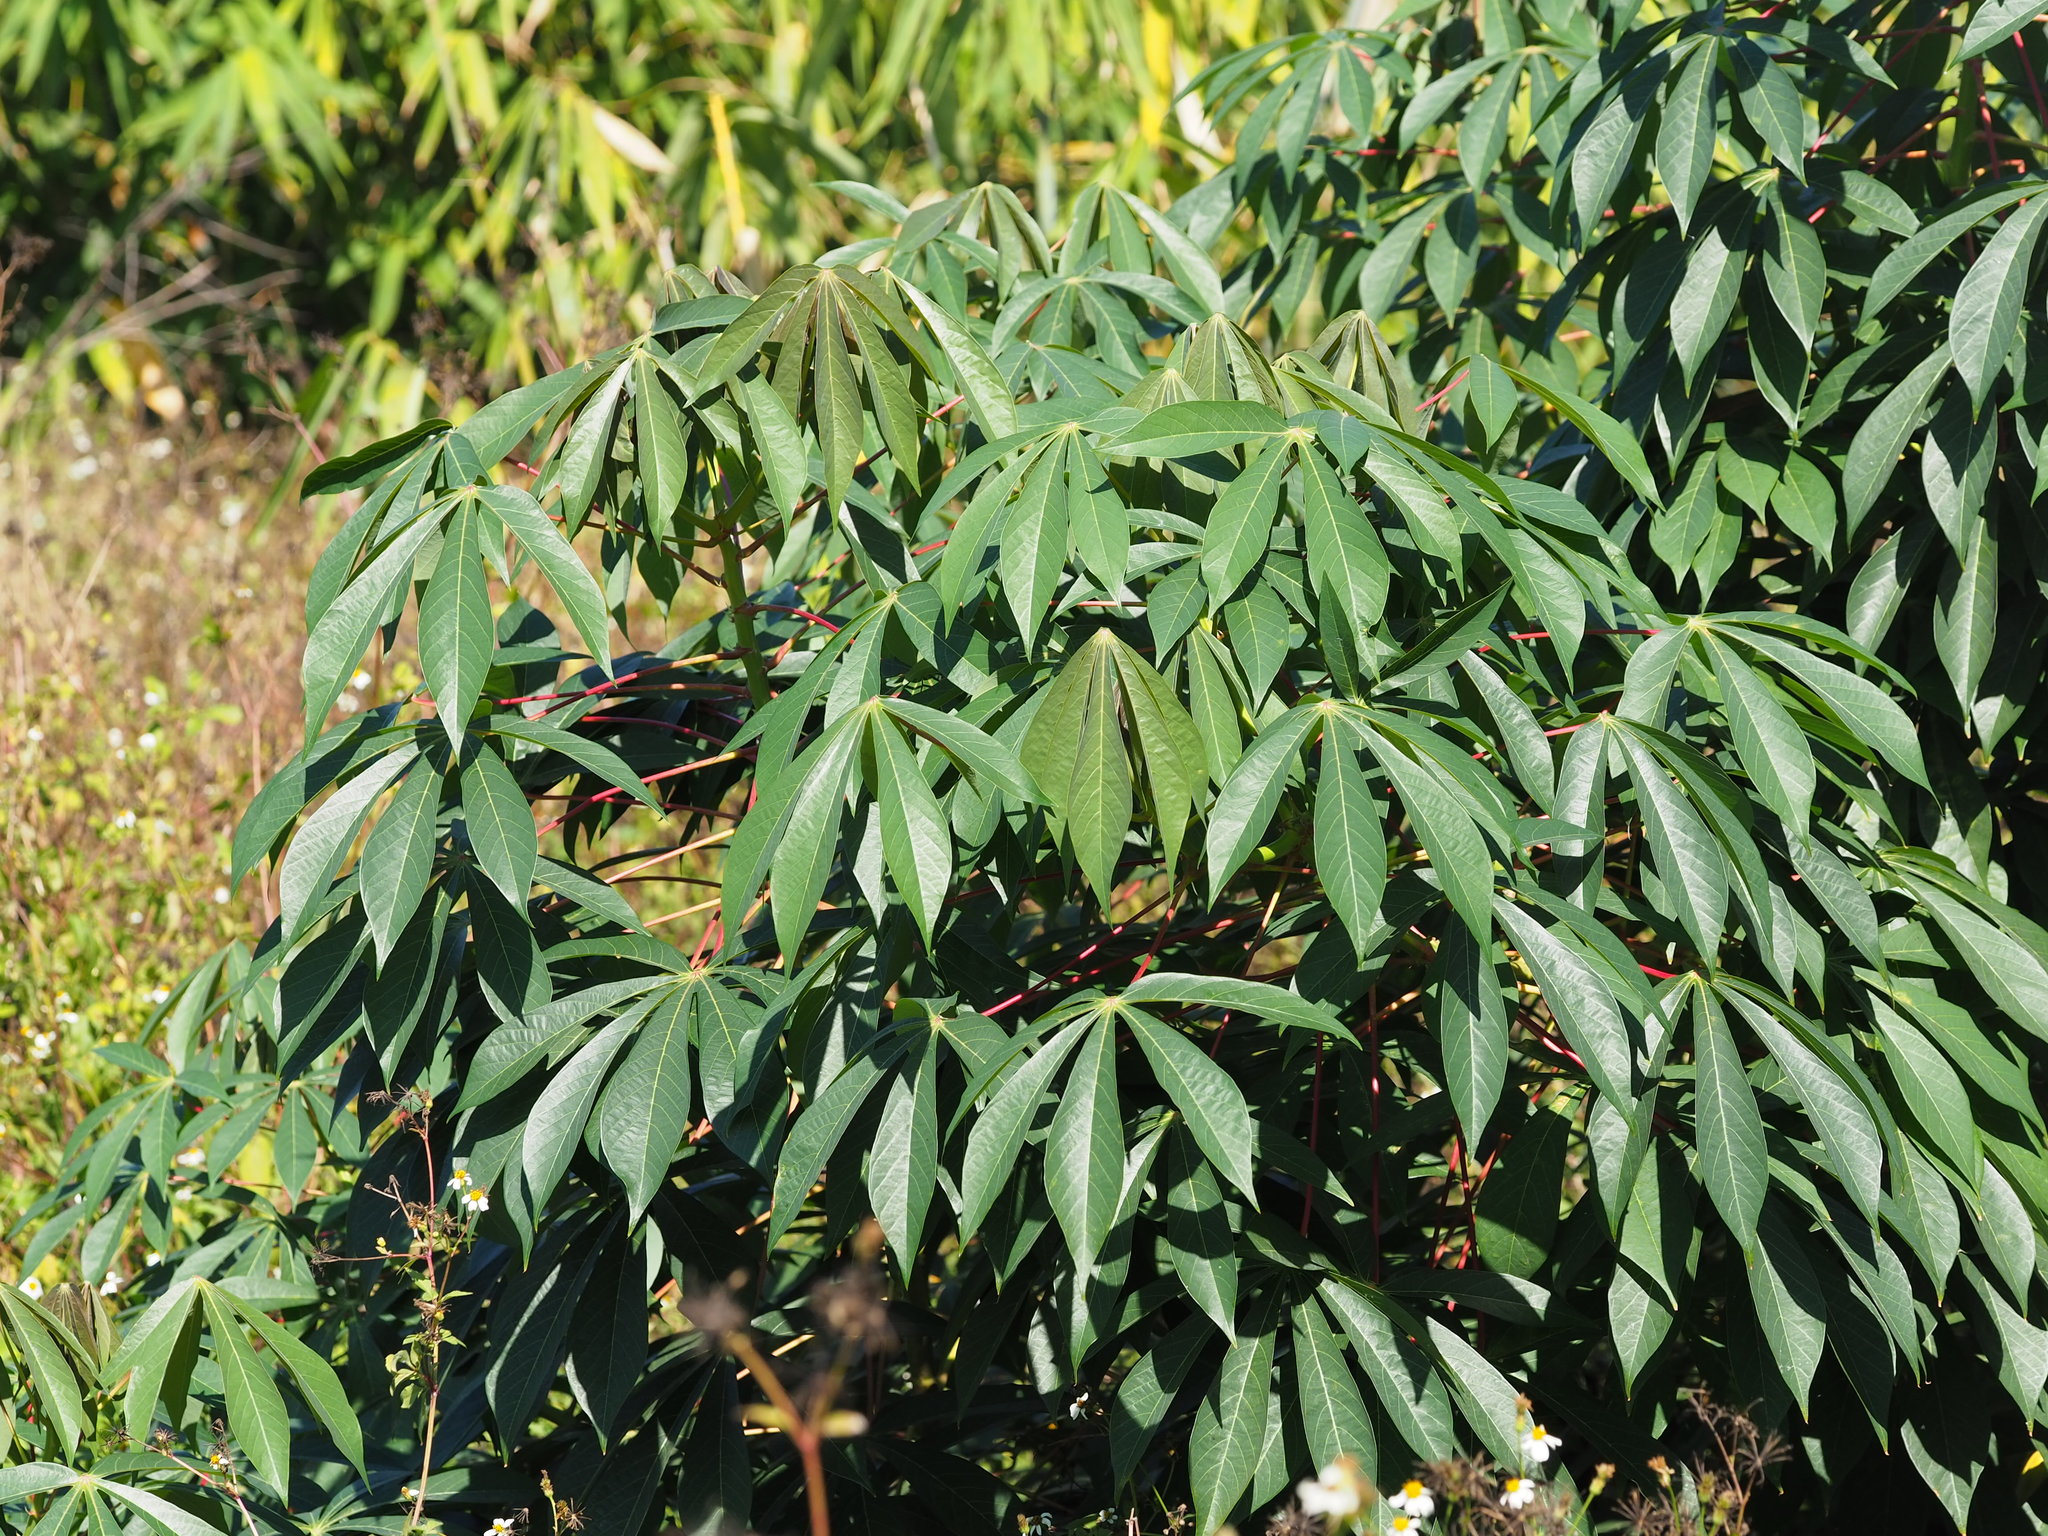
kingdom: Plantae
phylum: Tracheophyta
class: Magnoliopsida
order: Malpighiales
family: Euphorbiaceae
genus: Manihot
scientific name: Manihot esculenta
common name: Cassava
